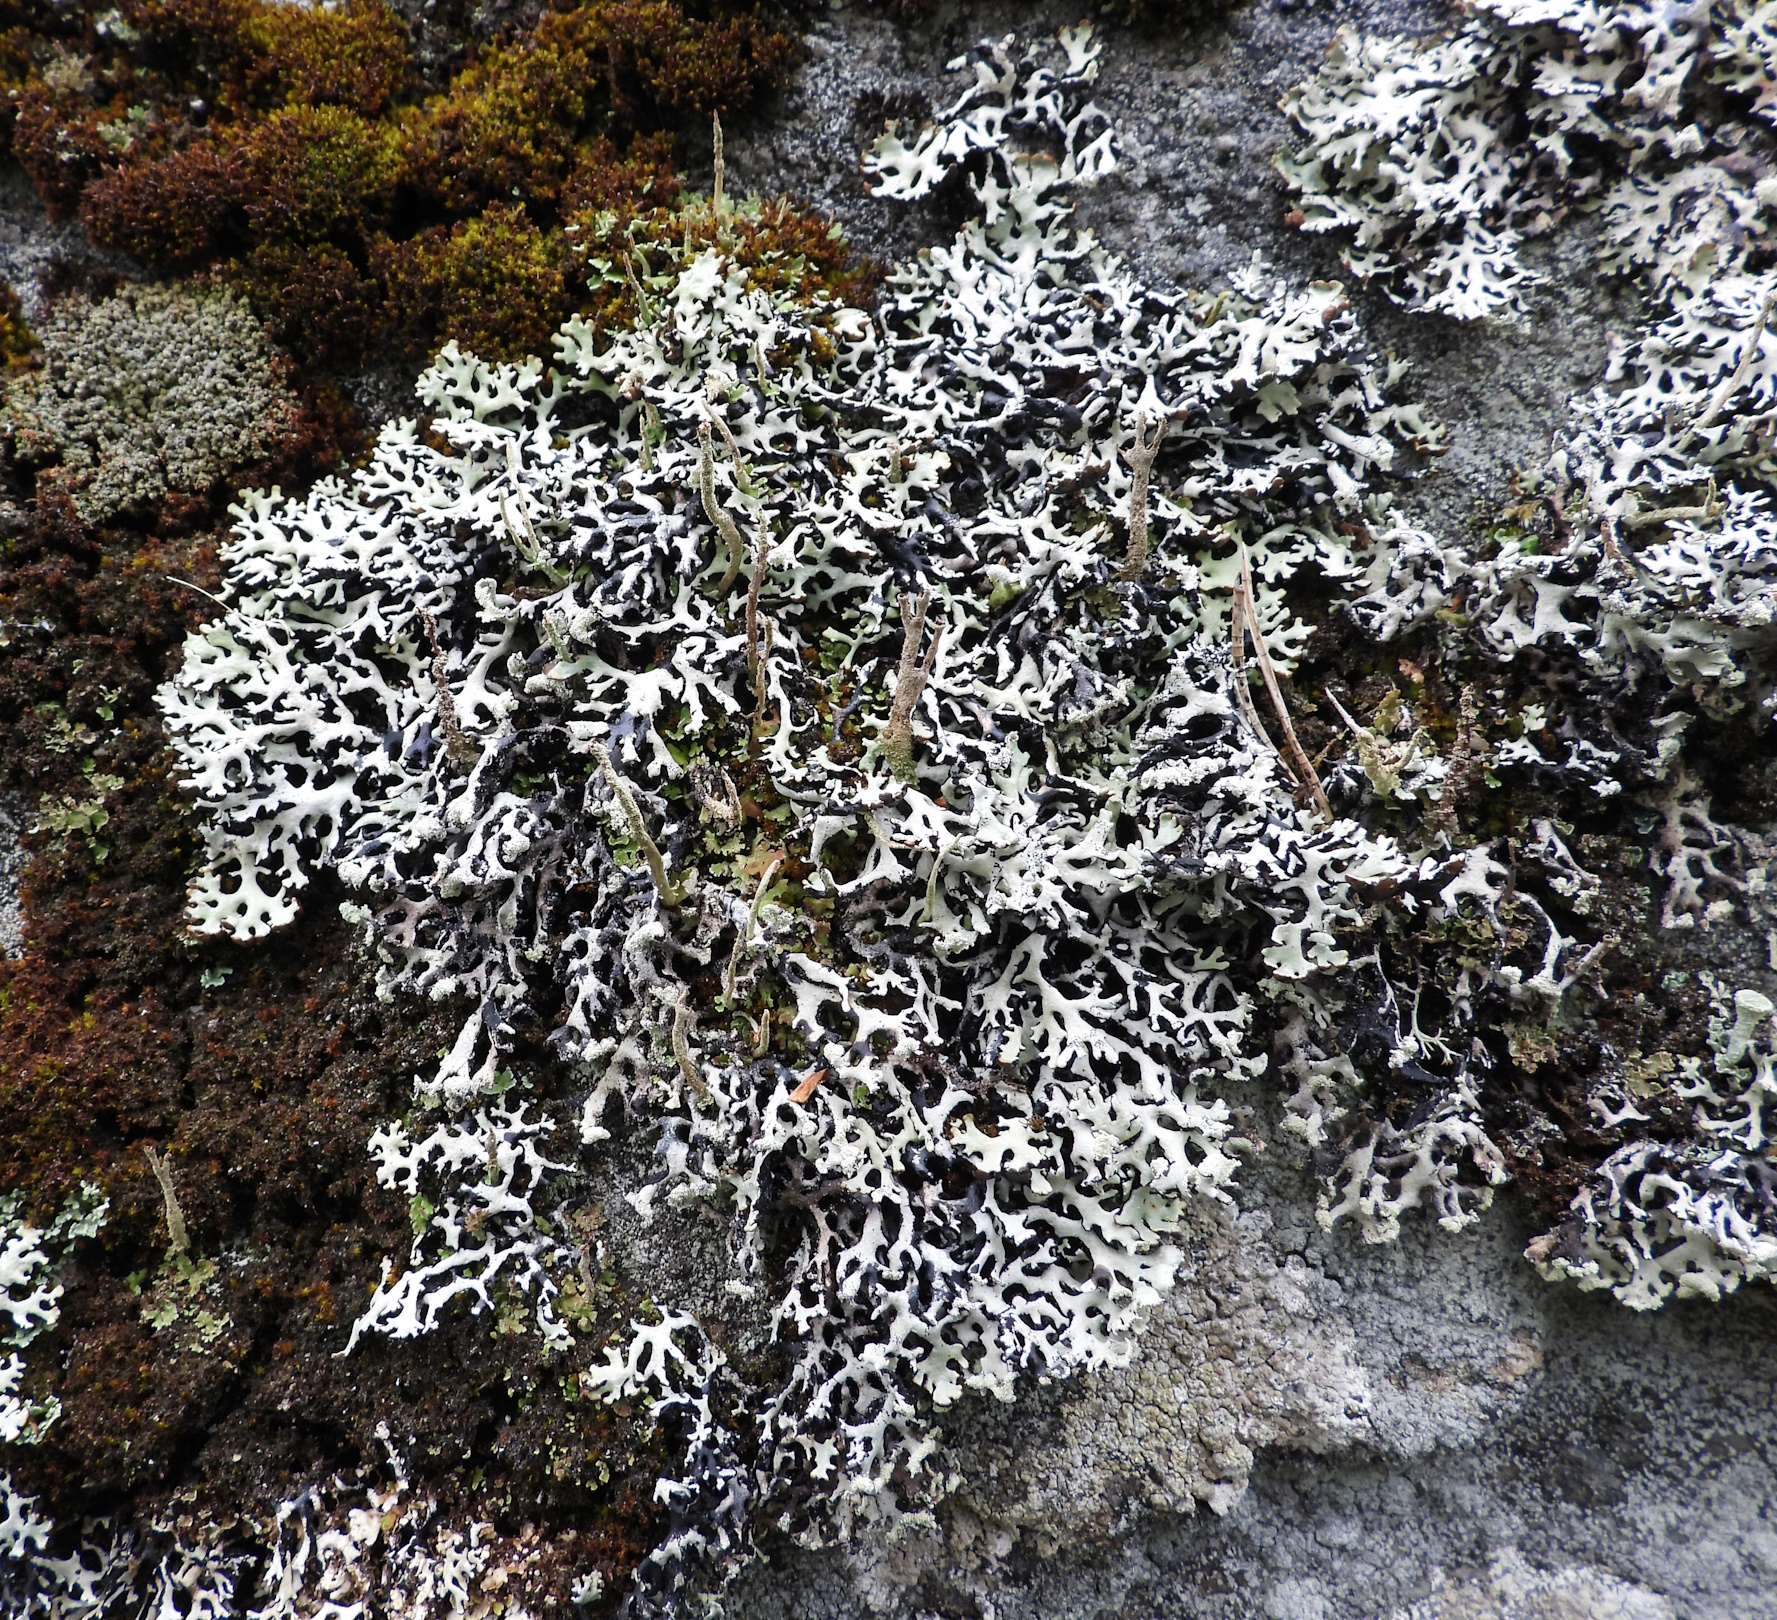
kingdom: Fungi
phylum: Ascomycota
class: Lecanoromycetes
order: Lecanorales
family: Parmeliaceae
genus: Hypogymnia
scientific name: Hypogymnia physodes
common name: Dark crottle
